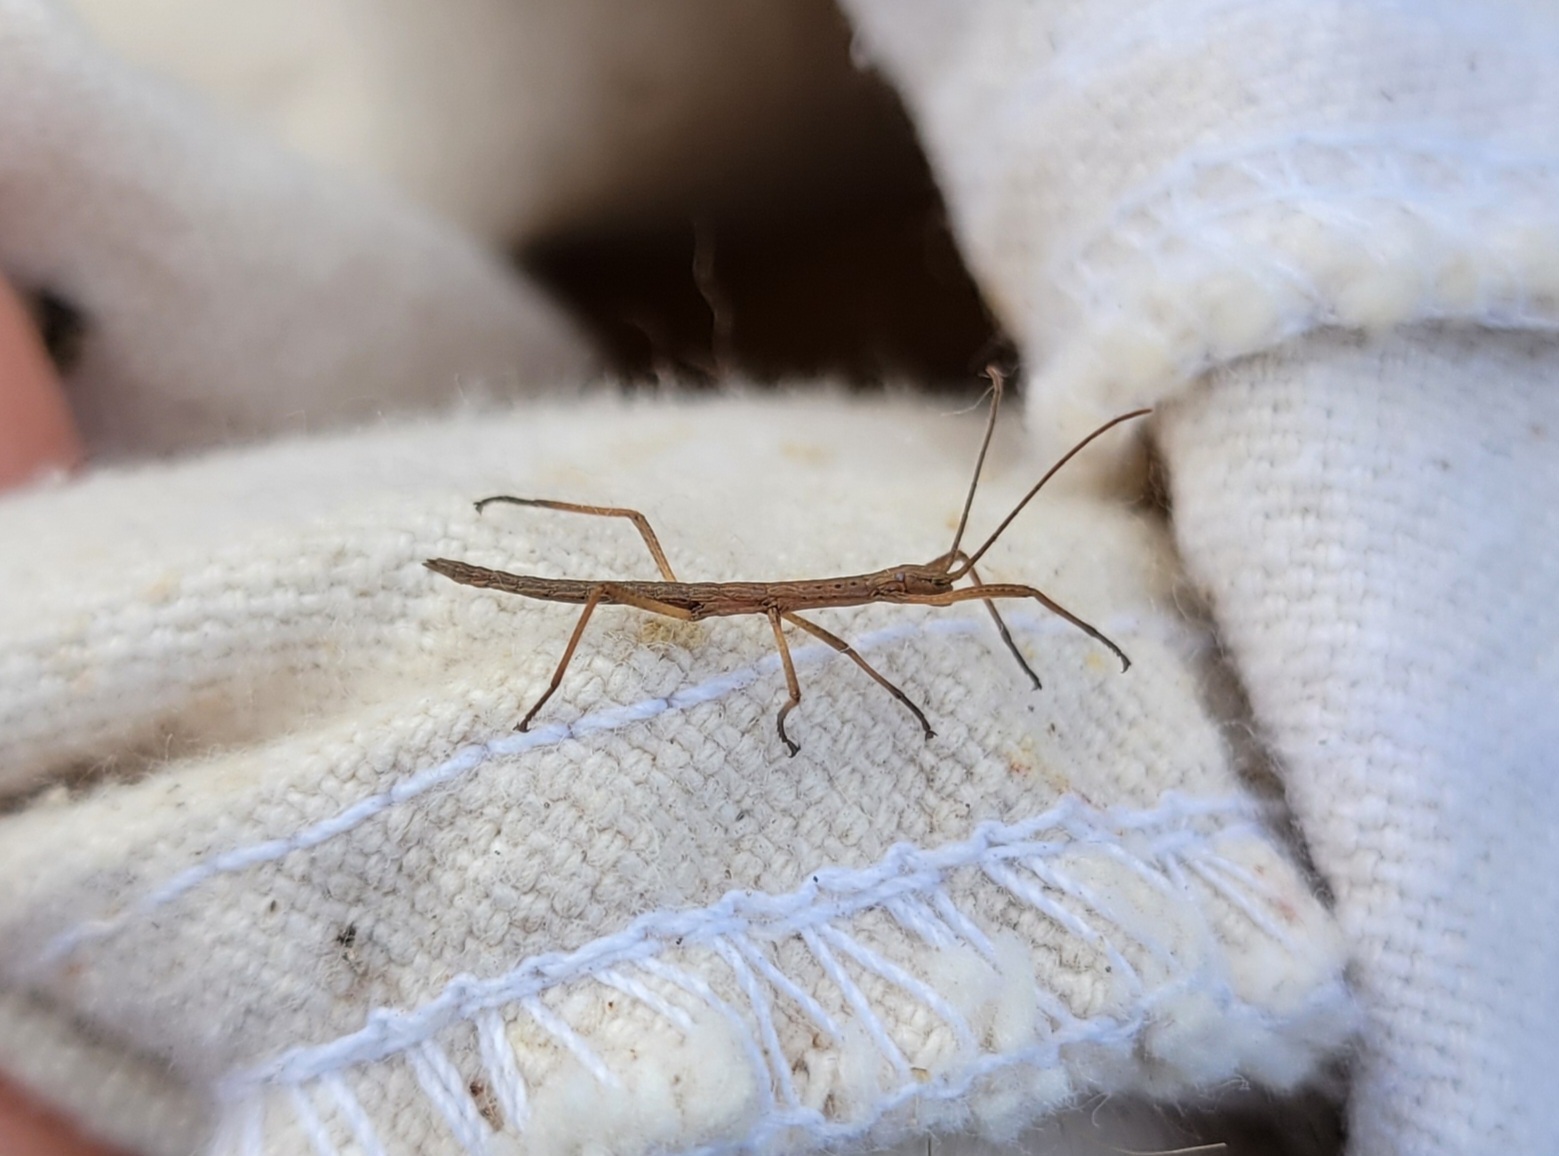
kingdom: Animalia
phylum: Arthropoda
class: Insecta
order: Phasmida
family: Pseudophasmatidae
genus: Anisomorpha
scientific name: Anisomorpha buprestoides
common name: Florida stick insect
